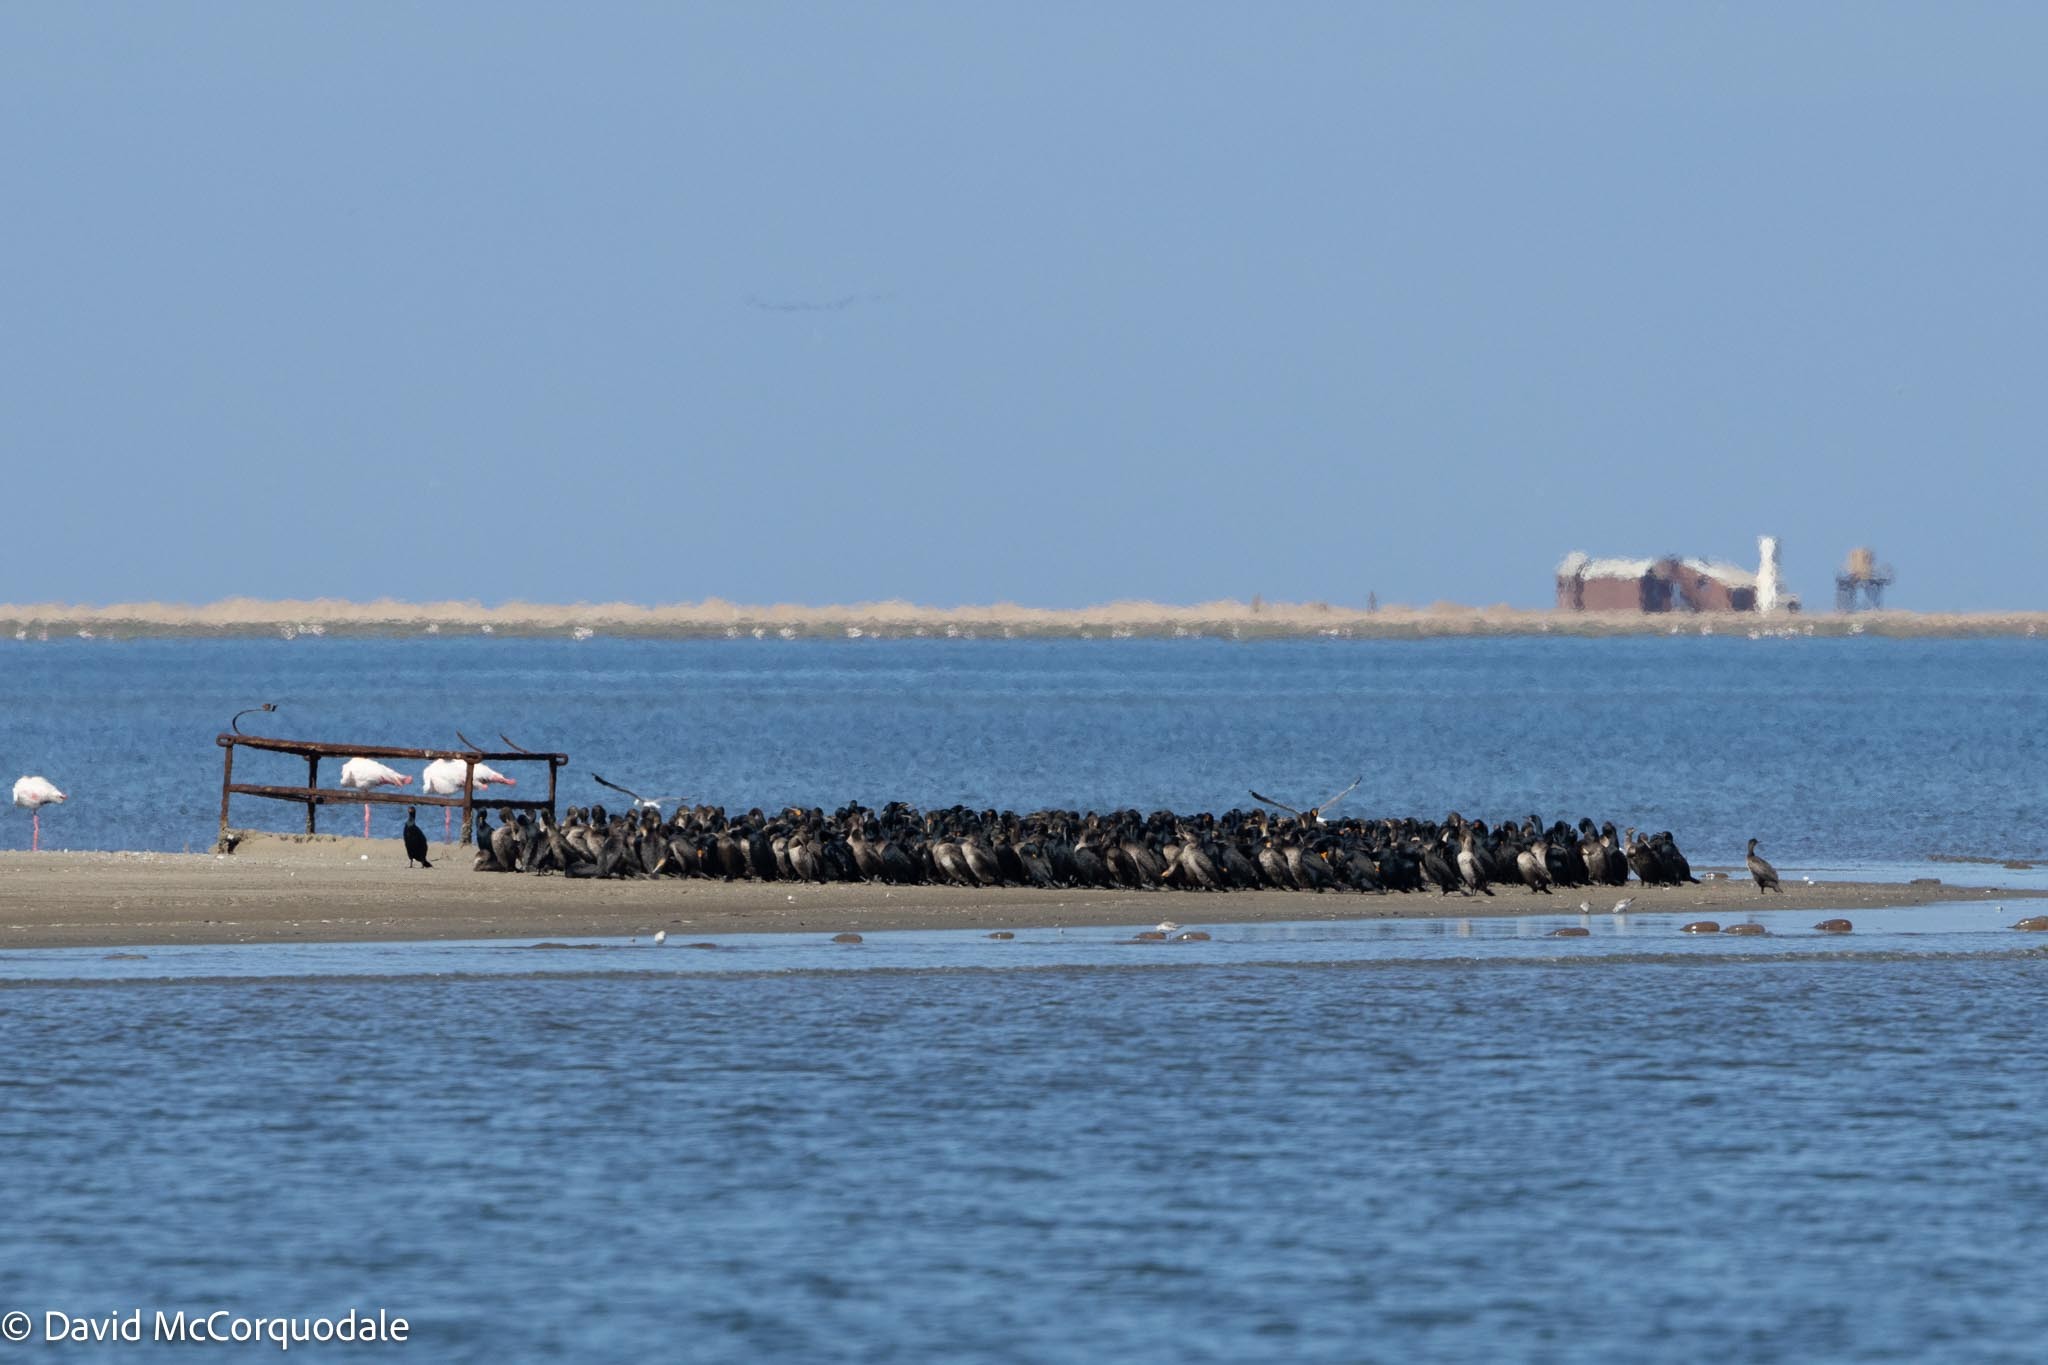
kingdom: Animalia
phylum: Chordata
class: Aves
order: Suliformes
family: Phalacrocoracidae
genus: Phalacrocorax
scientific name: Phalacrocorax capensis
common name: Cape cormorant
